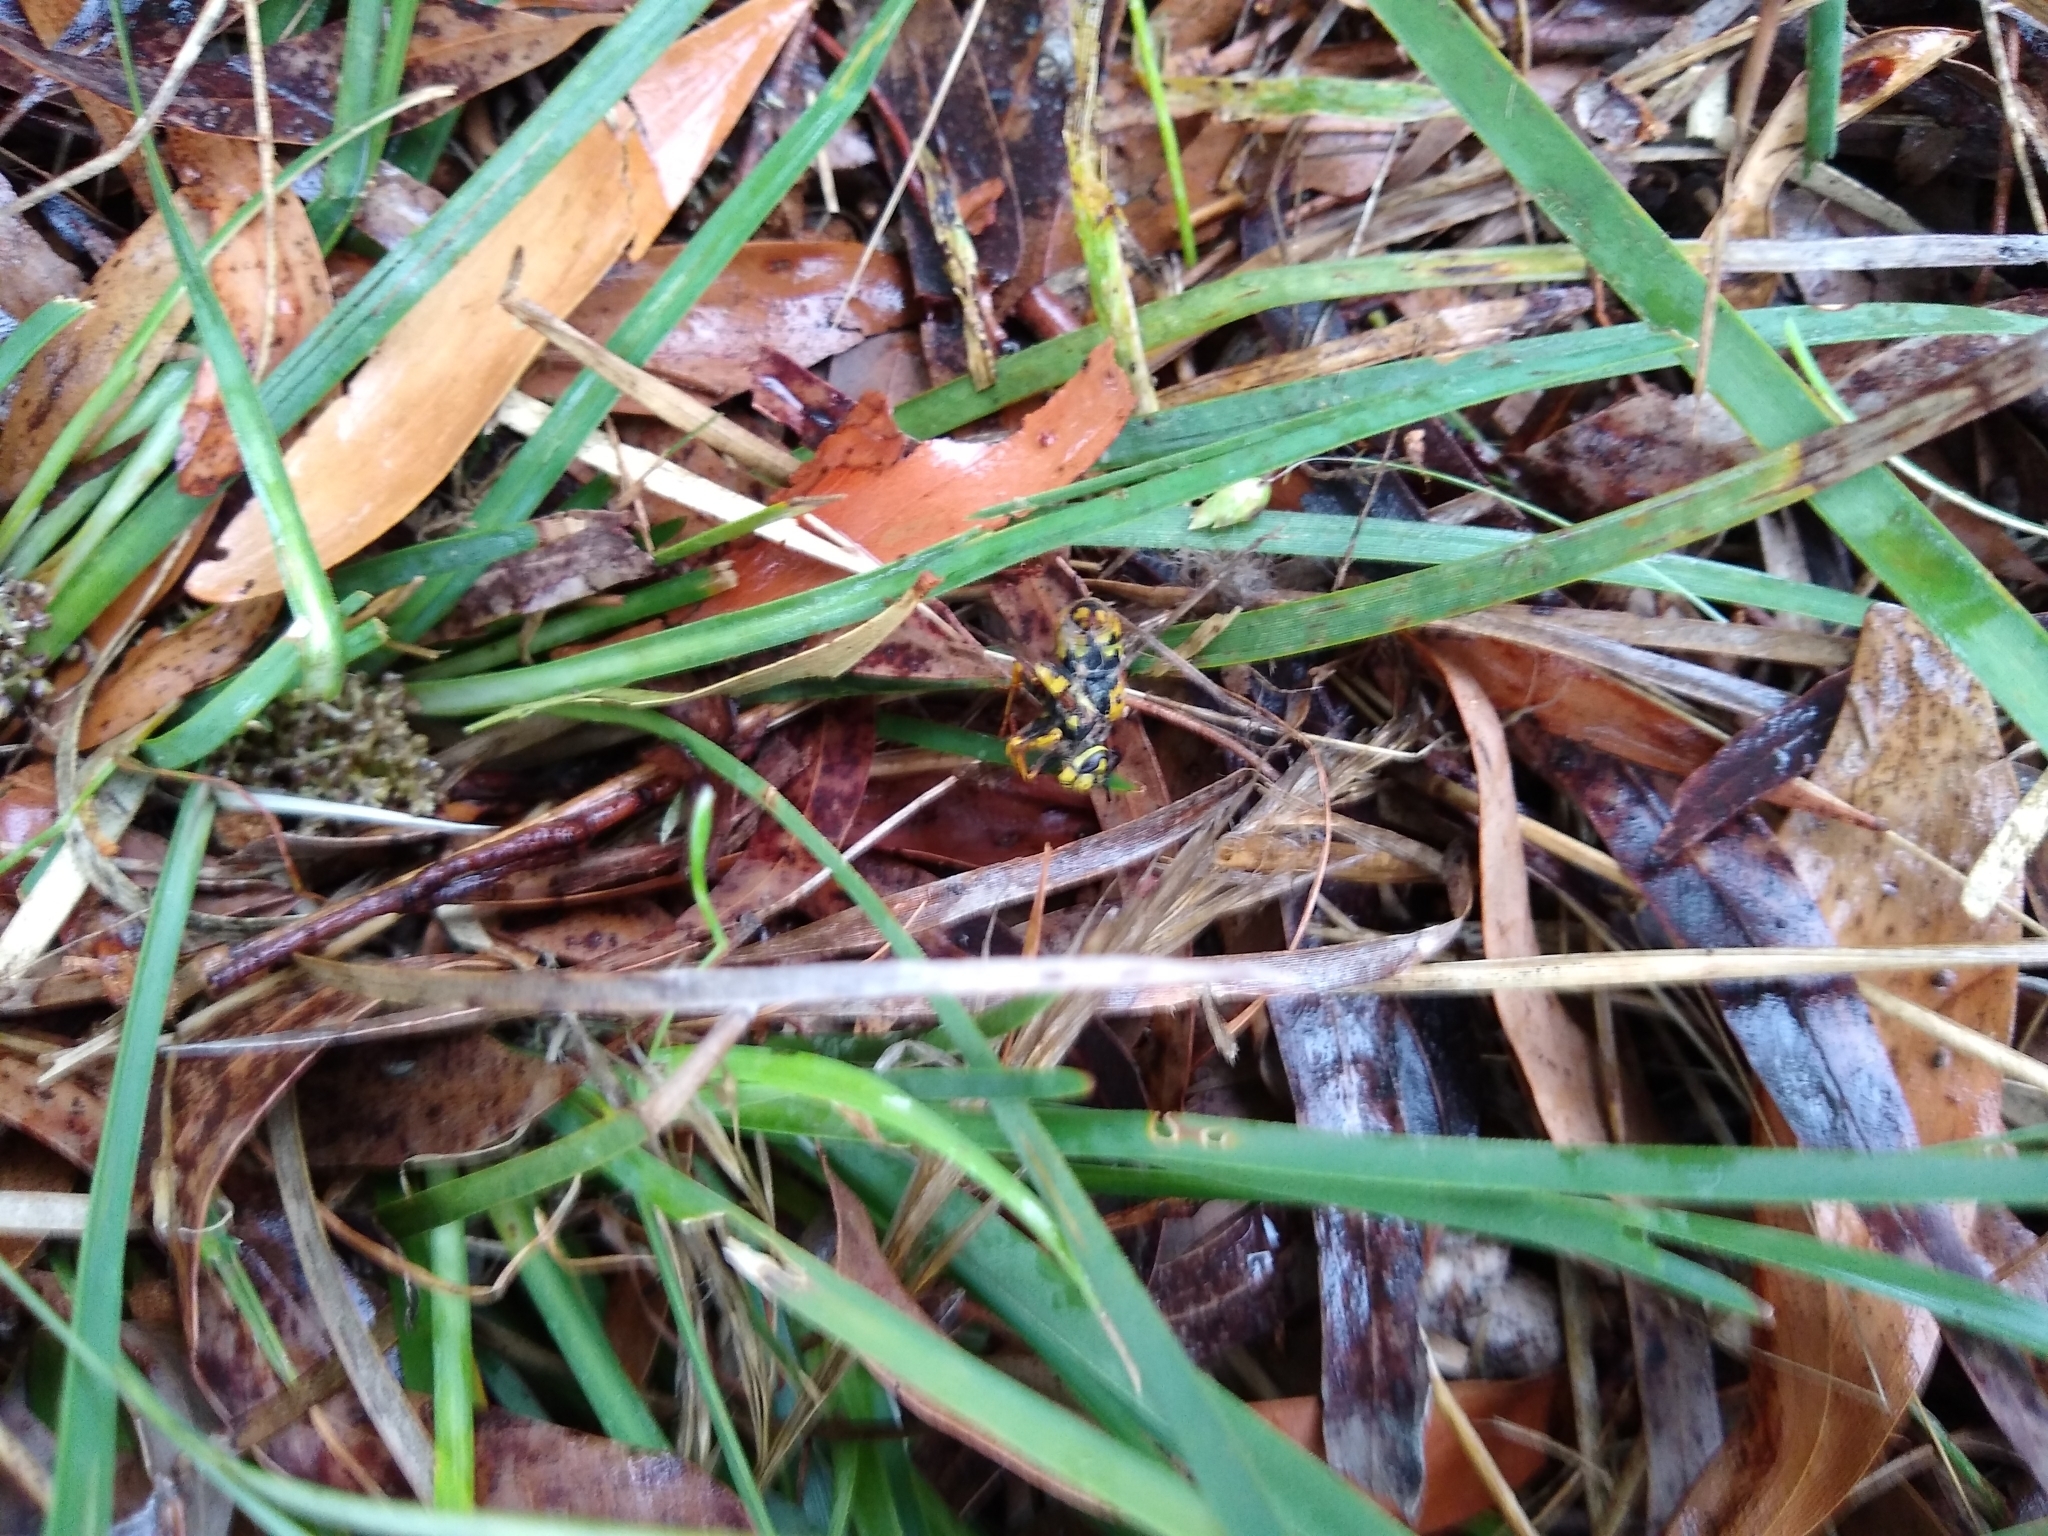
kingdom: Animalia
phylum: Arthropoda
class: Insecta
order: Hymenoptera
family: Vespidae
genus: Vespula
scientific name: Vespula germanica
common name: German wasp
